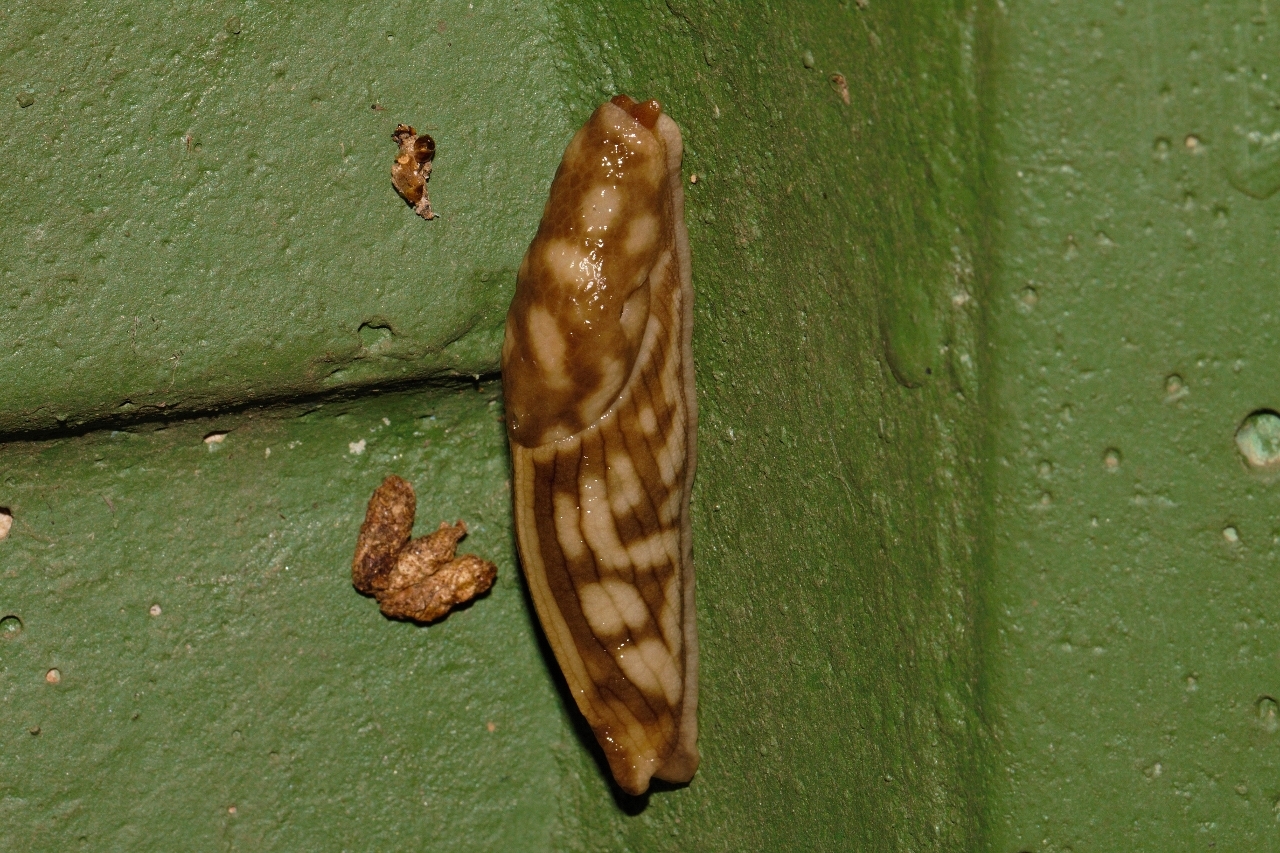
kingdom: Animalia
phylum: Mollusca
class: Gastropoda
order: Stylommatophora
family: Urocyclidae
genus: Polytoxon
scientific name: Polytoxon robustum
